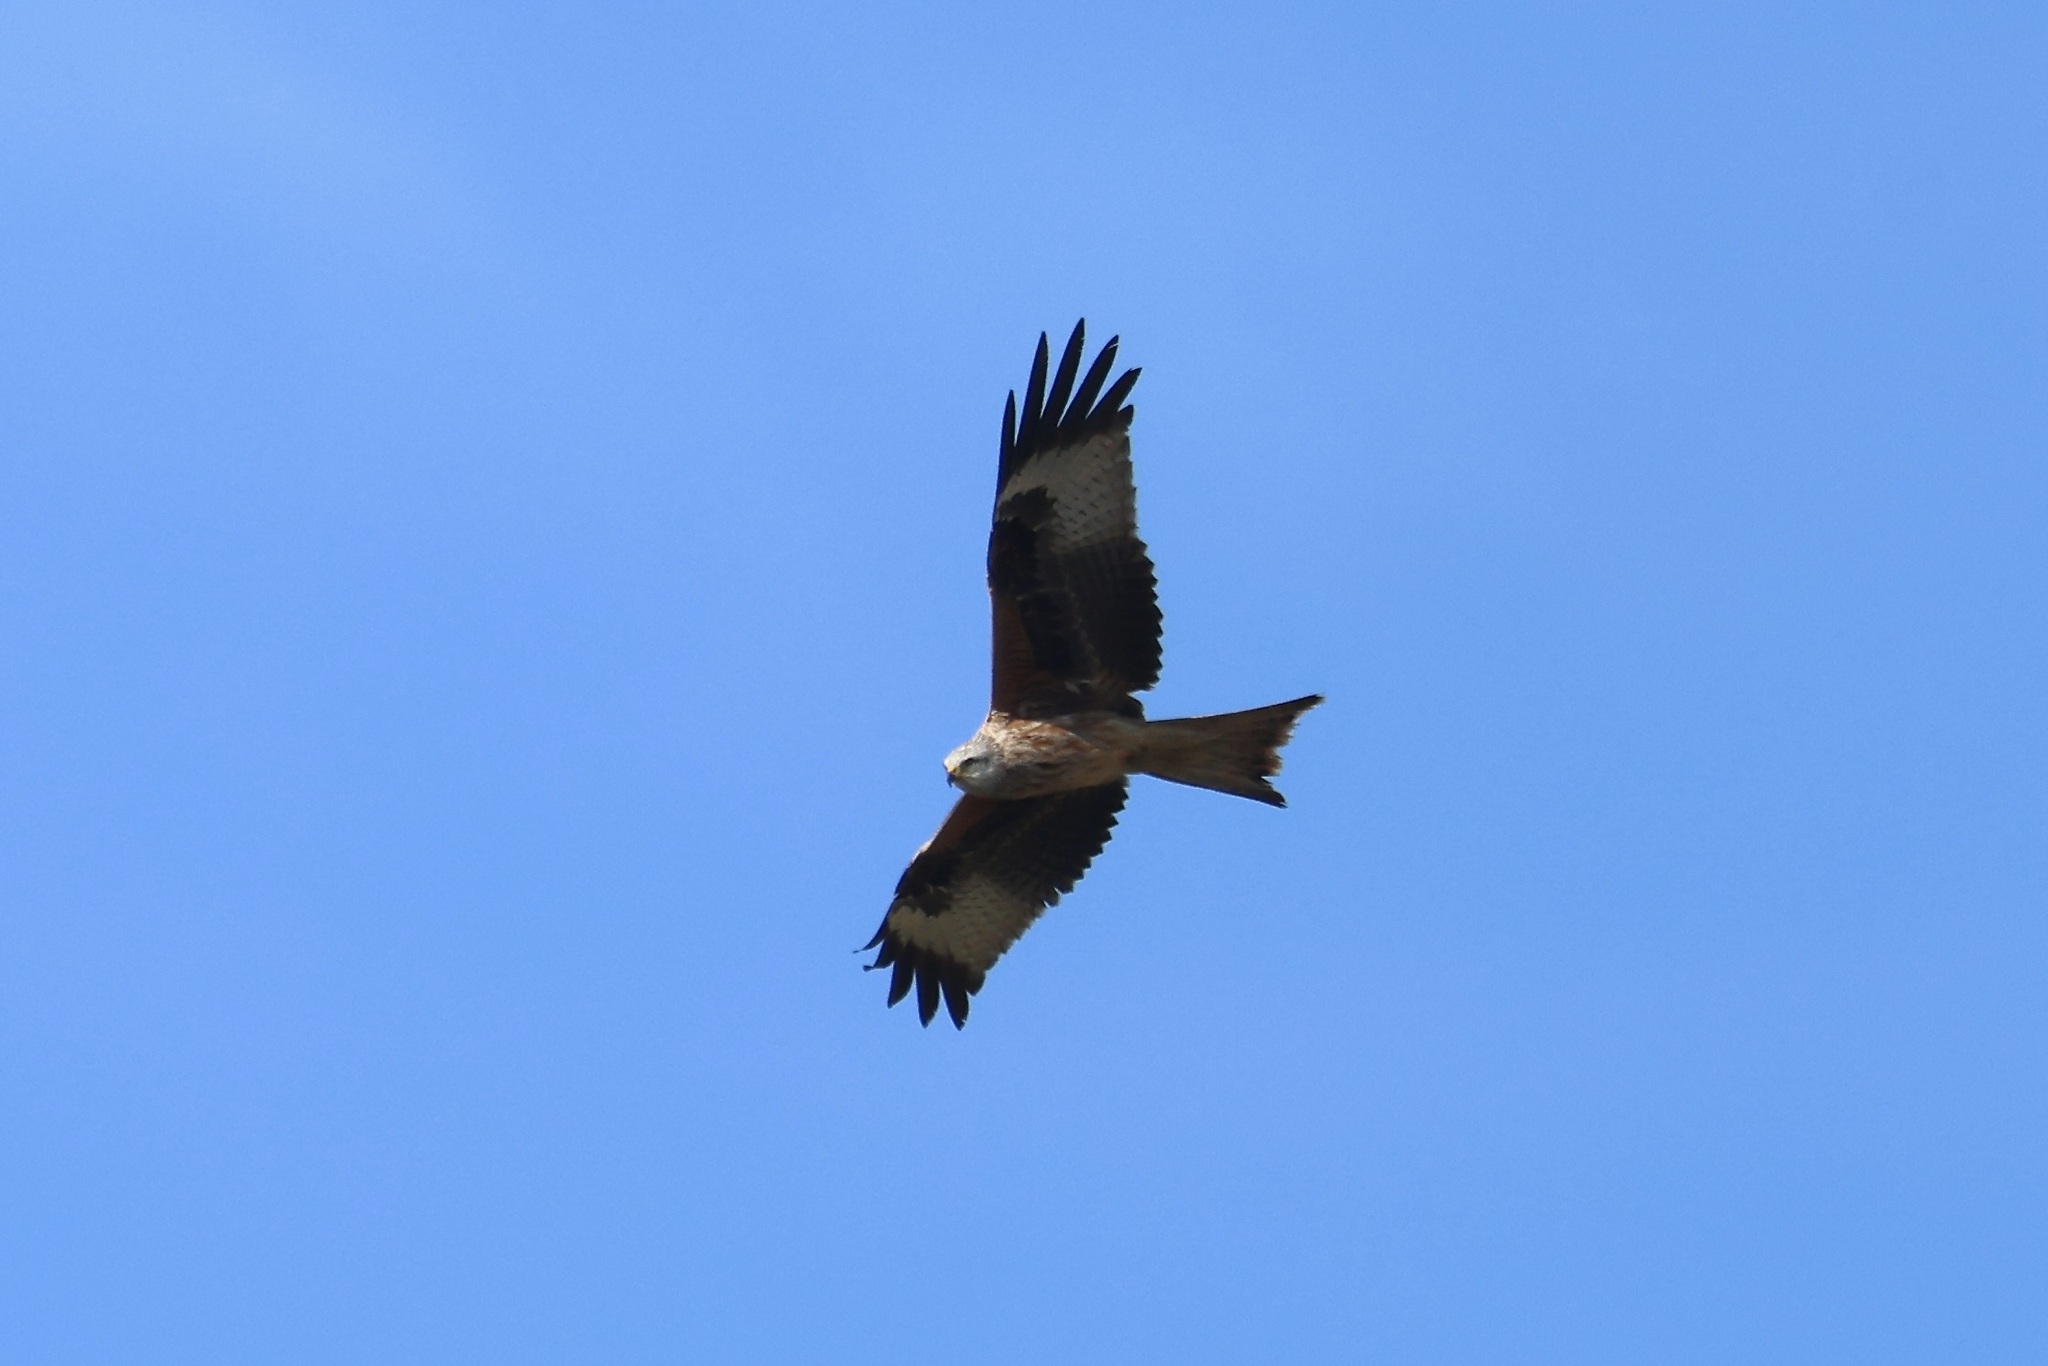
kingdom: Animalia
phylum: Chordata
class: Aves
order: Accipitriformes
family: Accipitridae
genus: Milvus
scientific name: Milvus milvus
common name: Red kite
